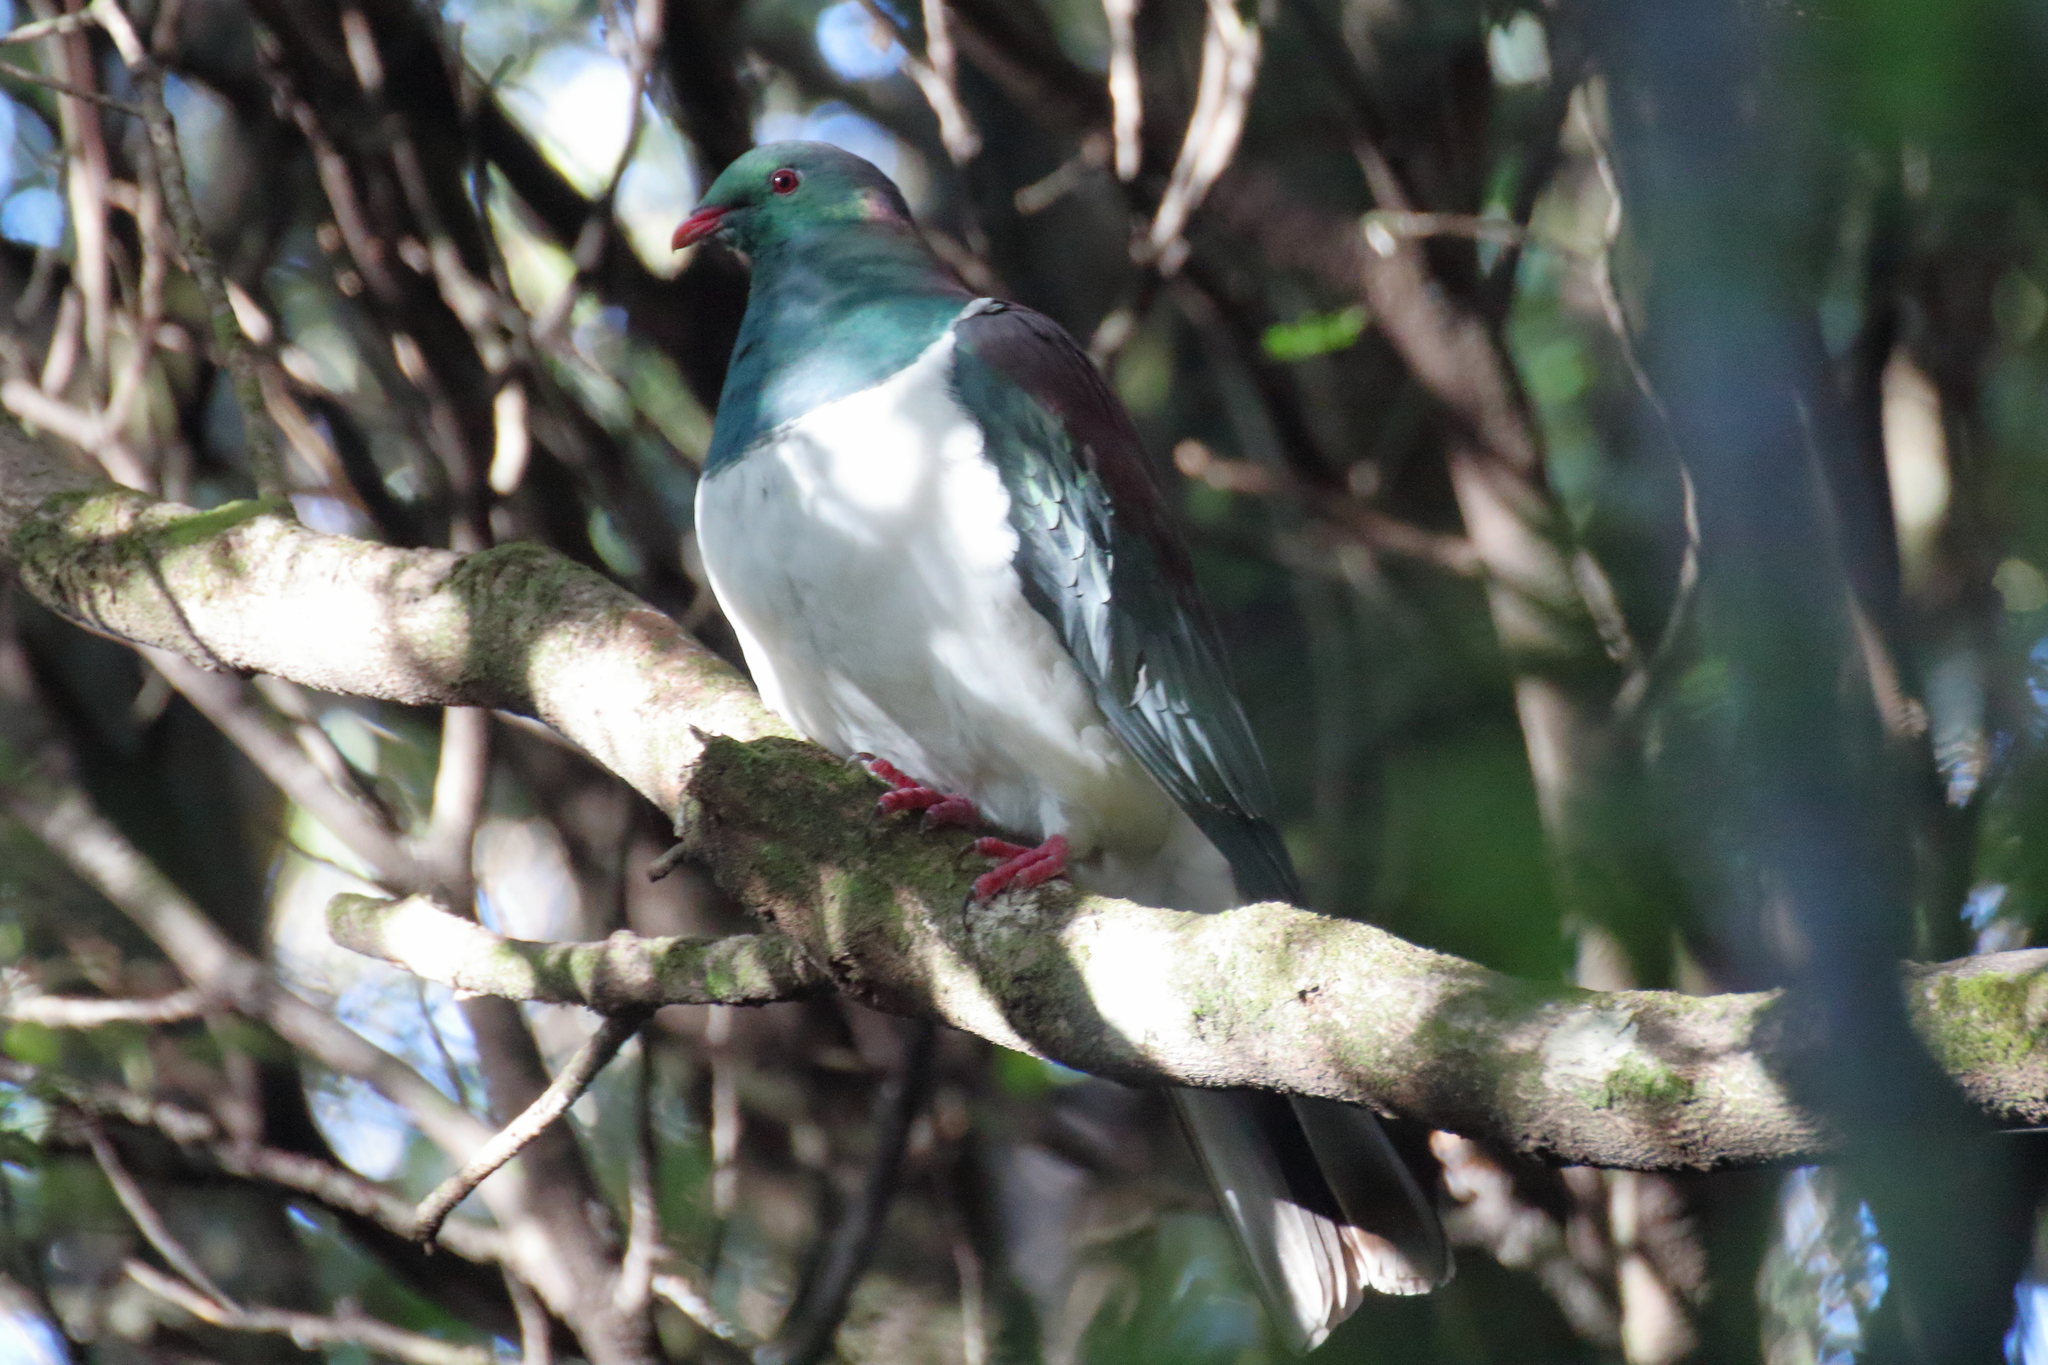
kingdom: Animalia
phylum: Chordata
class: Aves
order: Columbiformes
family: Columbidae
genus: Hemiphaga
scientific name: Hemiphaga novaeseelandiae
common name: New zealand pigeon
